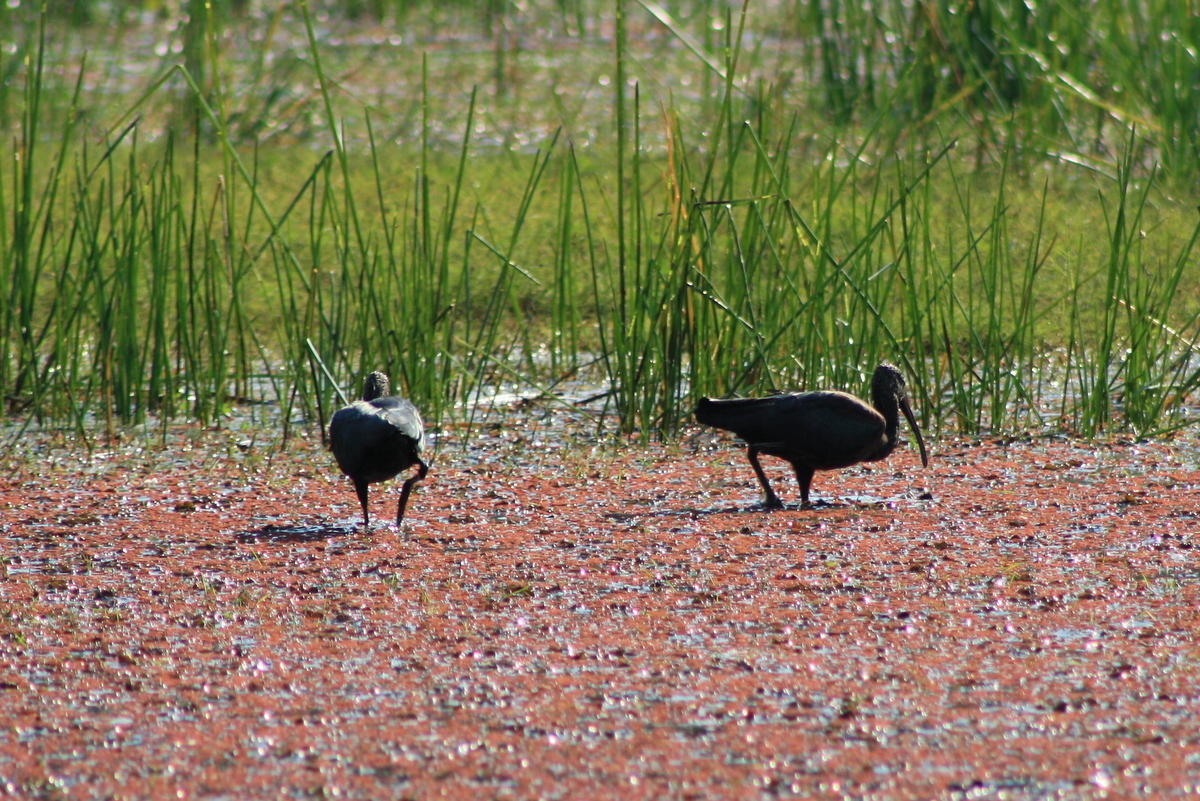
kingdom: Animalia
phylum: Chordata
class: Aves
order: Pelecaniformes
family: Threskiornithidae
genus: Plegadis
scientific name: Plegadis falcinellus
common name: Glossy ibis
